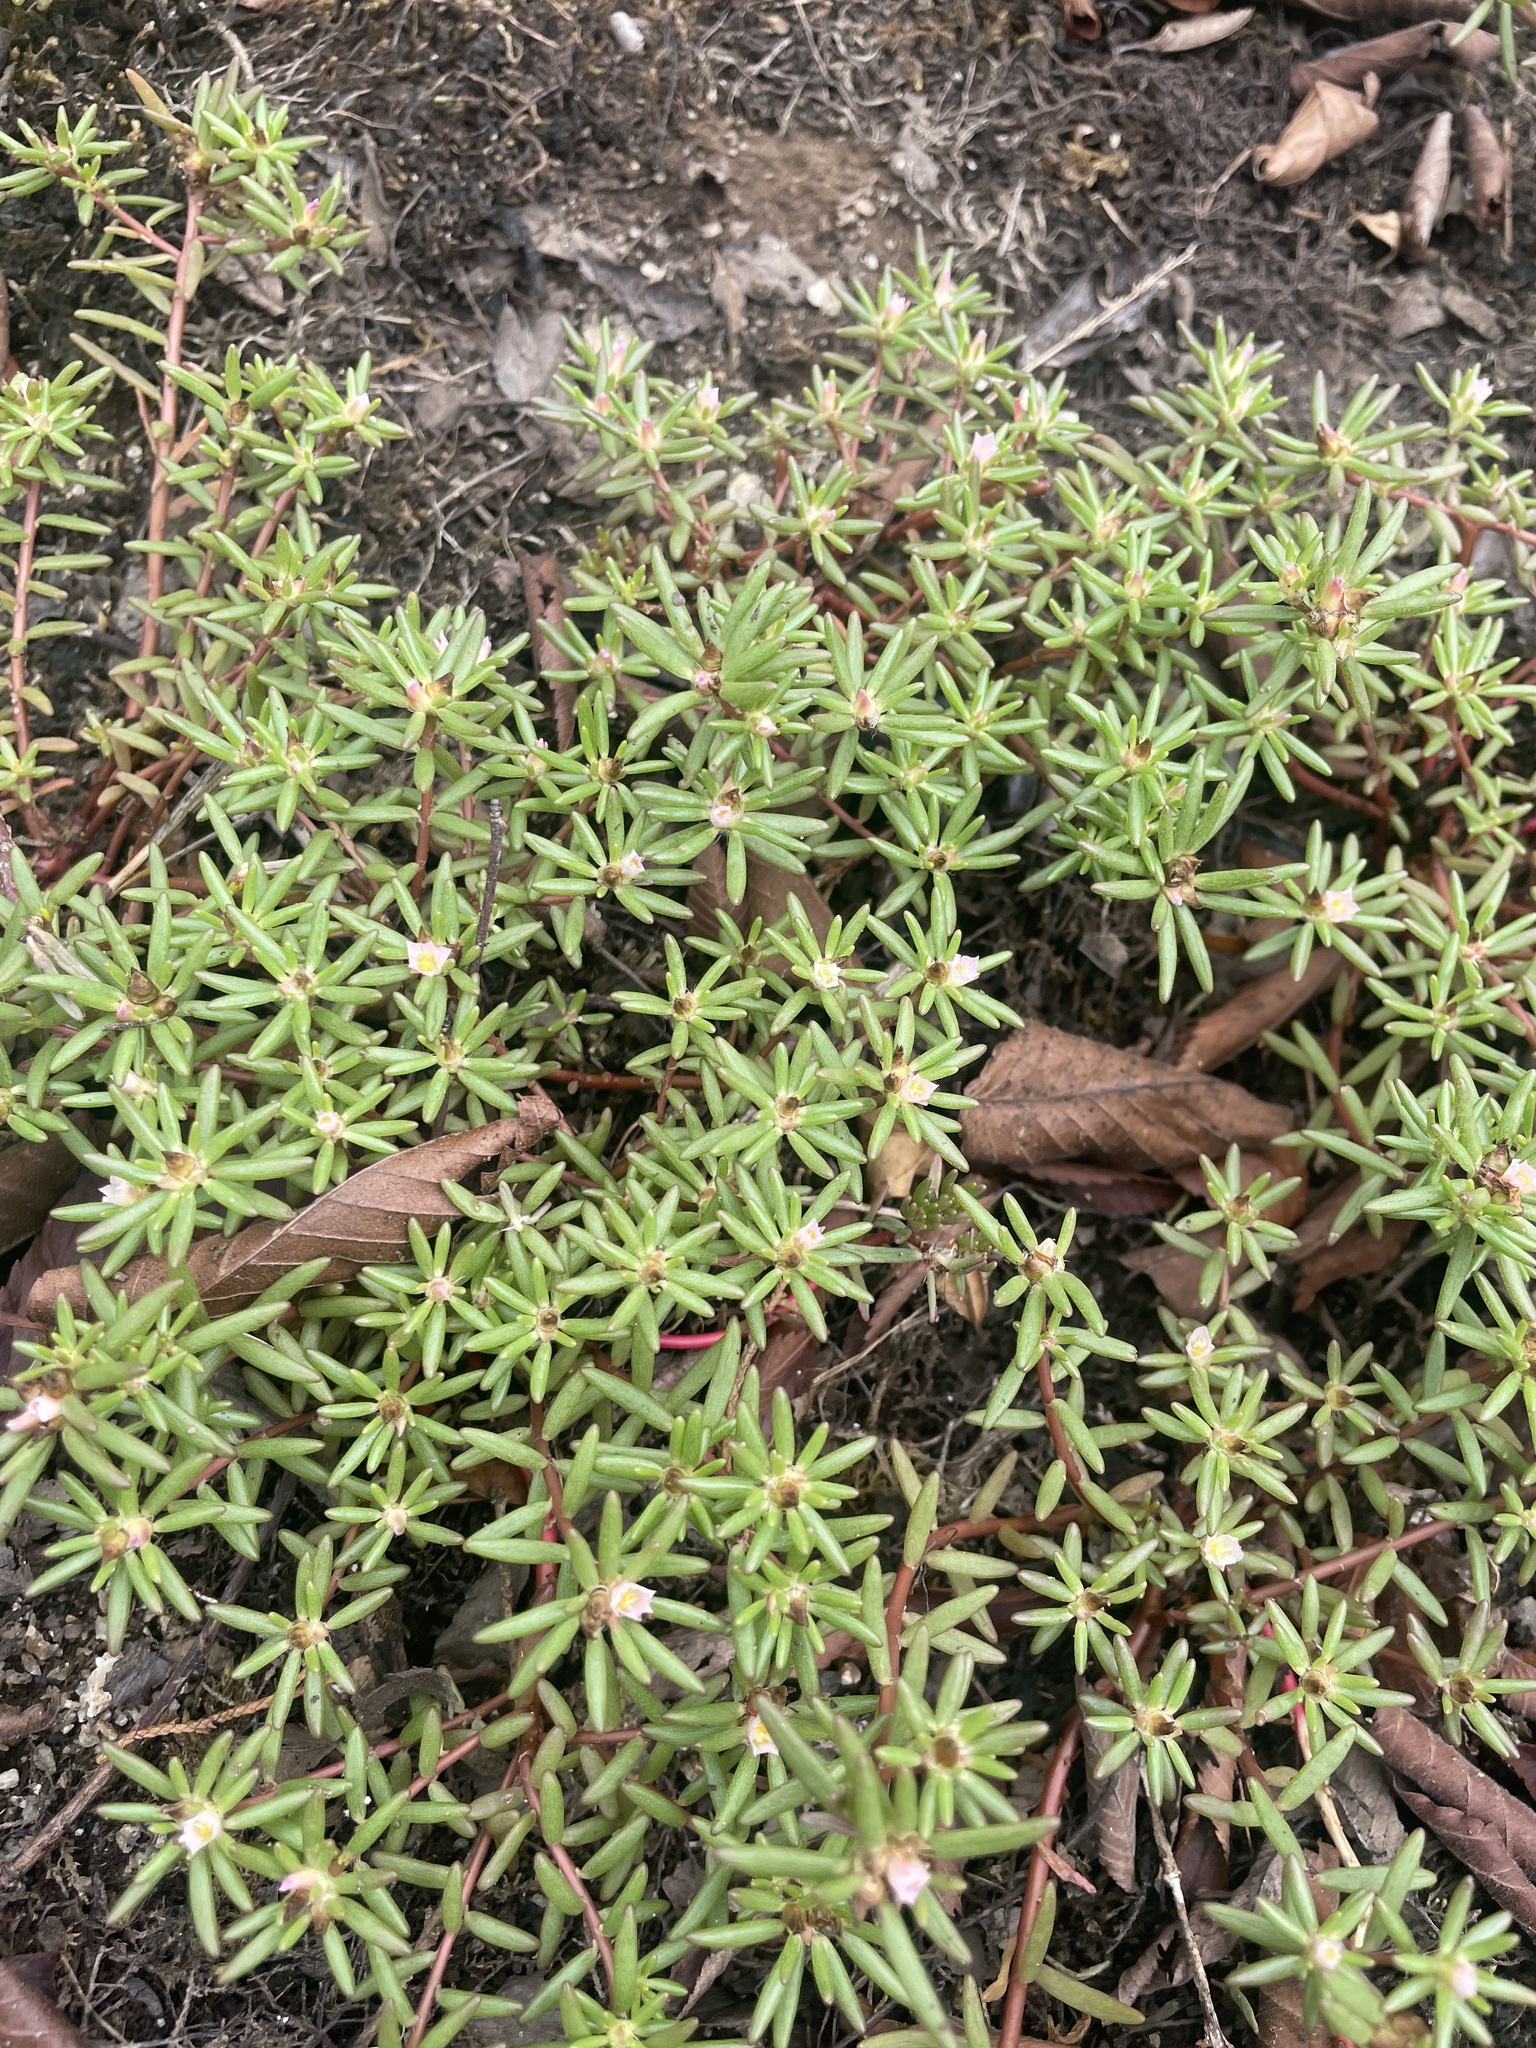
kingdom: Plantae
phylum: Tracheophyta
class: Magnoliopsida
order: Caryophyllales
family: Portulacaceae
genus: Portulaca
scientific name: Portulaca smallii
